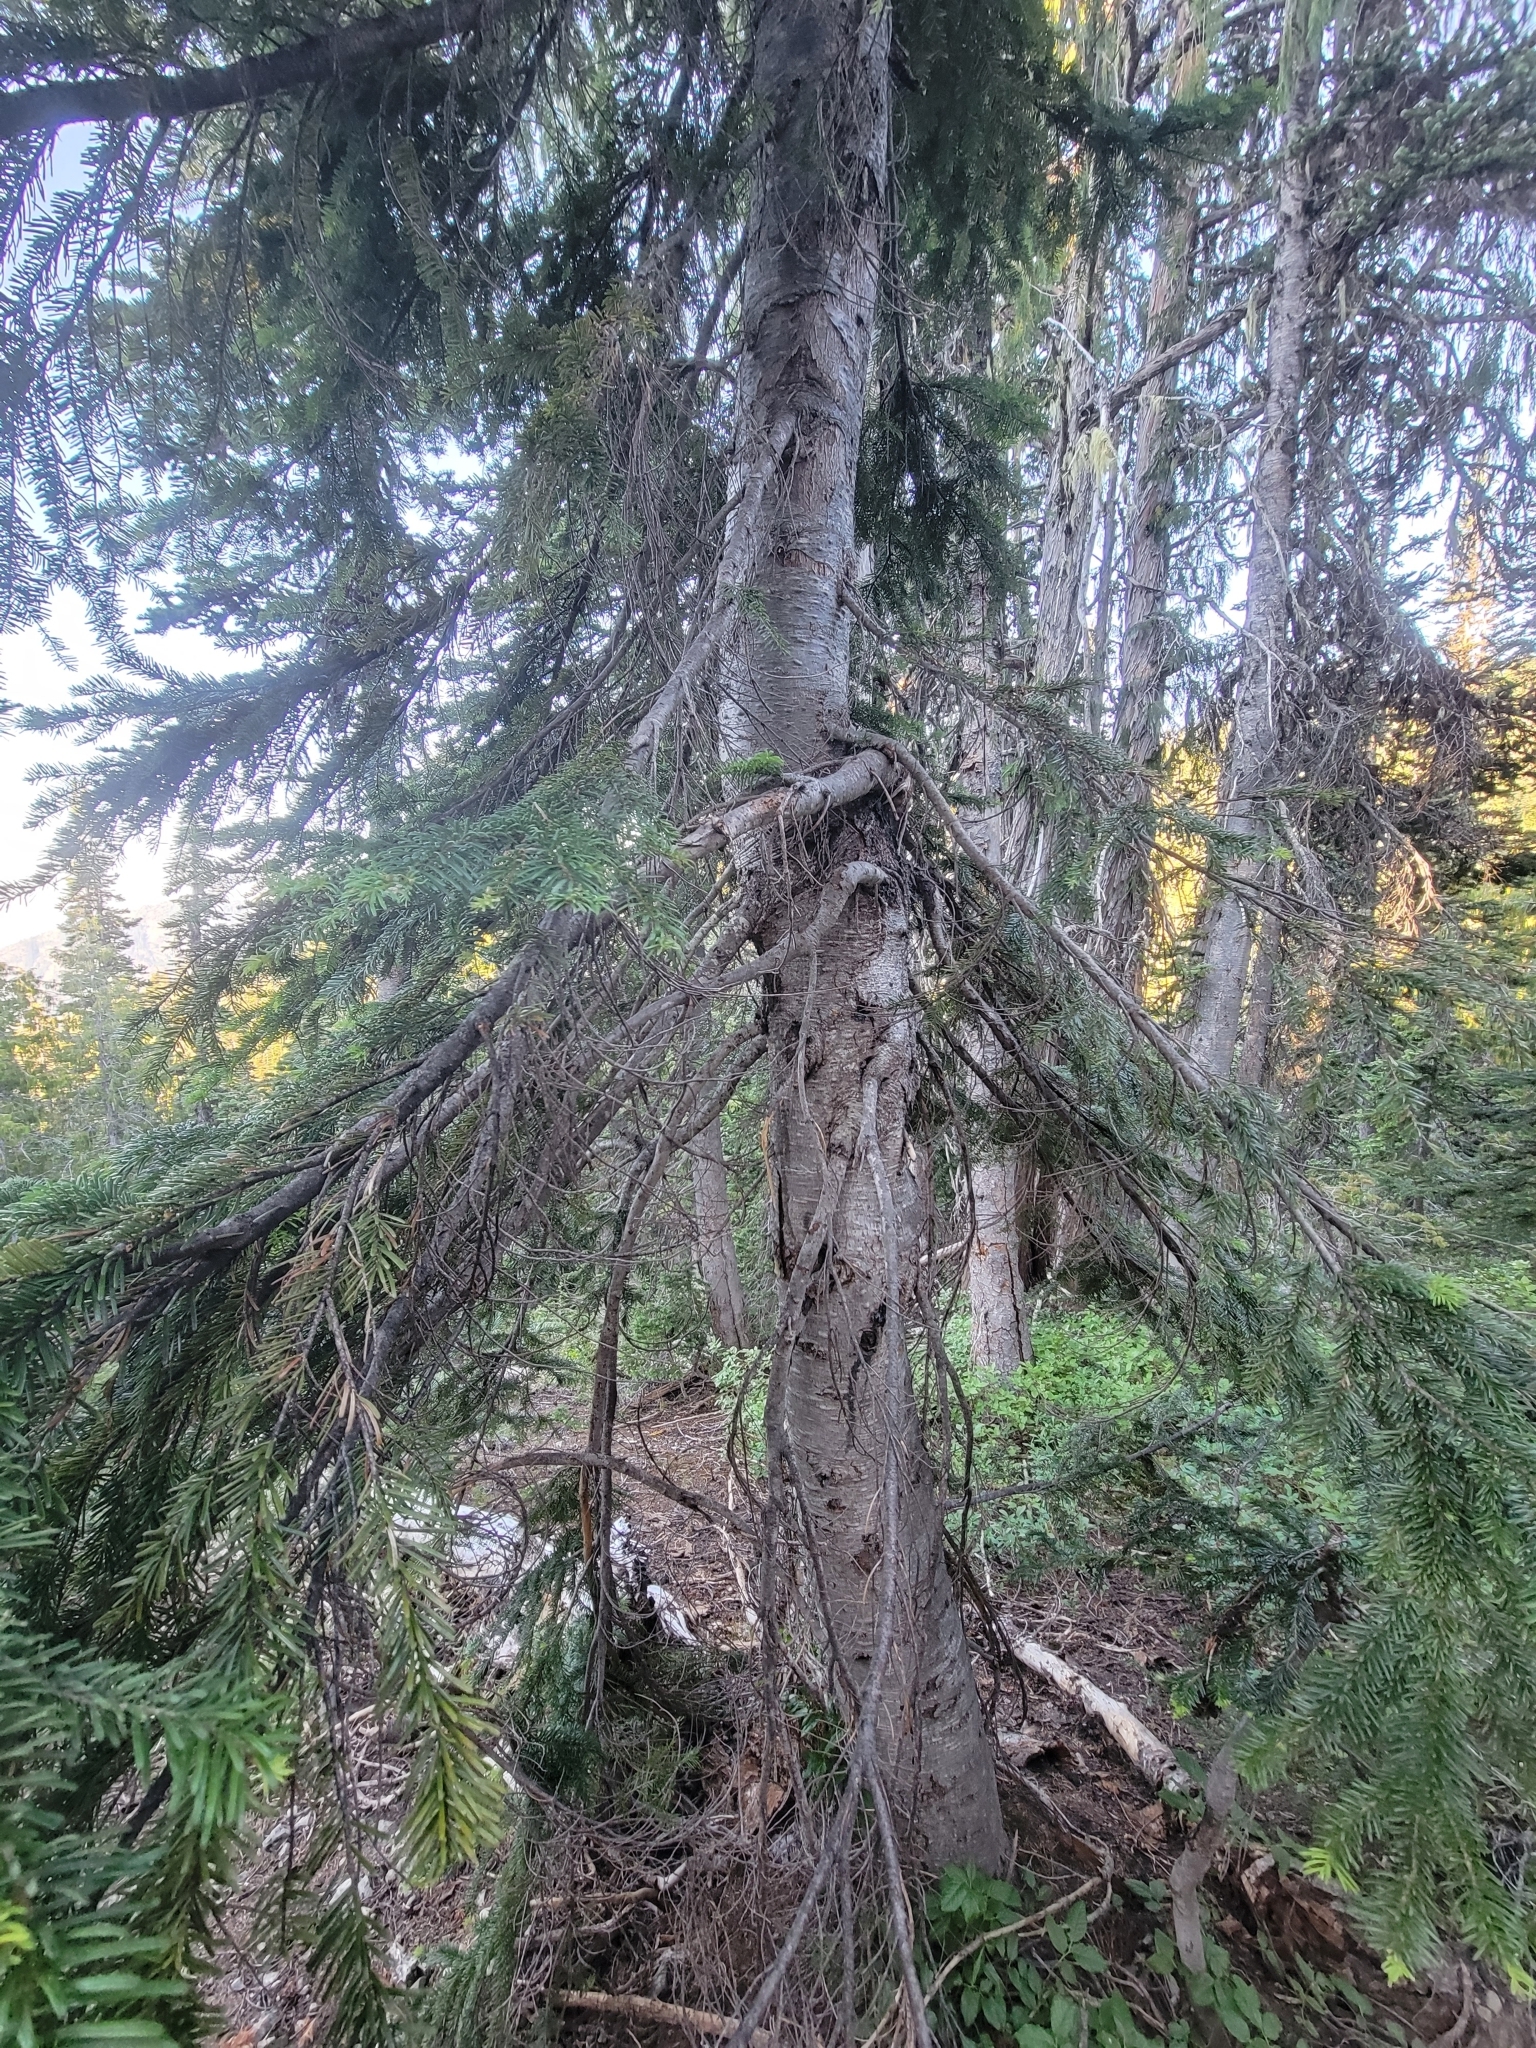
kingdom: Plantae
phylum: Tracheophyta
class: Pinopsida
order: Pinales
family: Pinaceae
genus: Abies
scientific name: Abies amabilis
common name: Pacific silver fir
